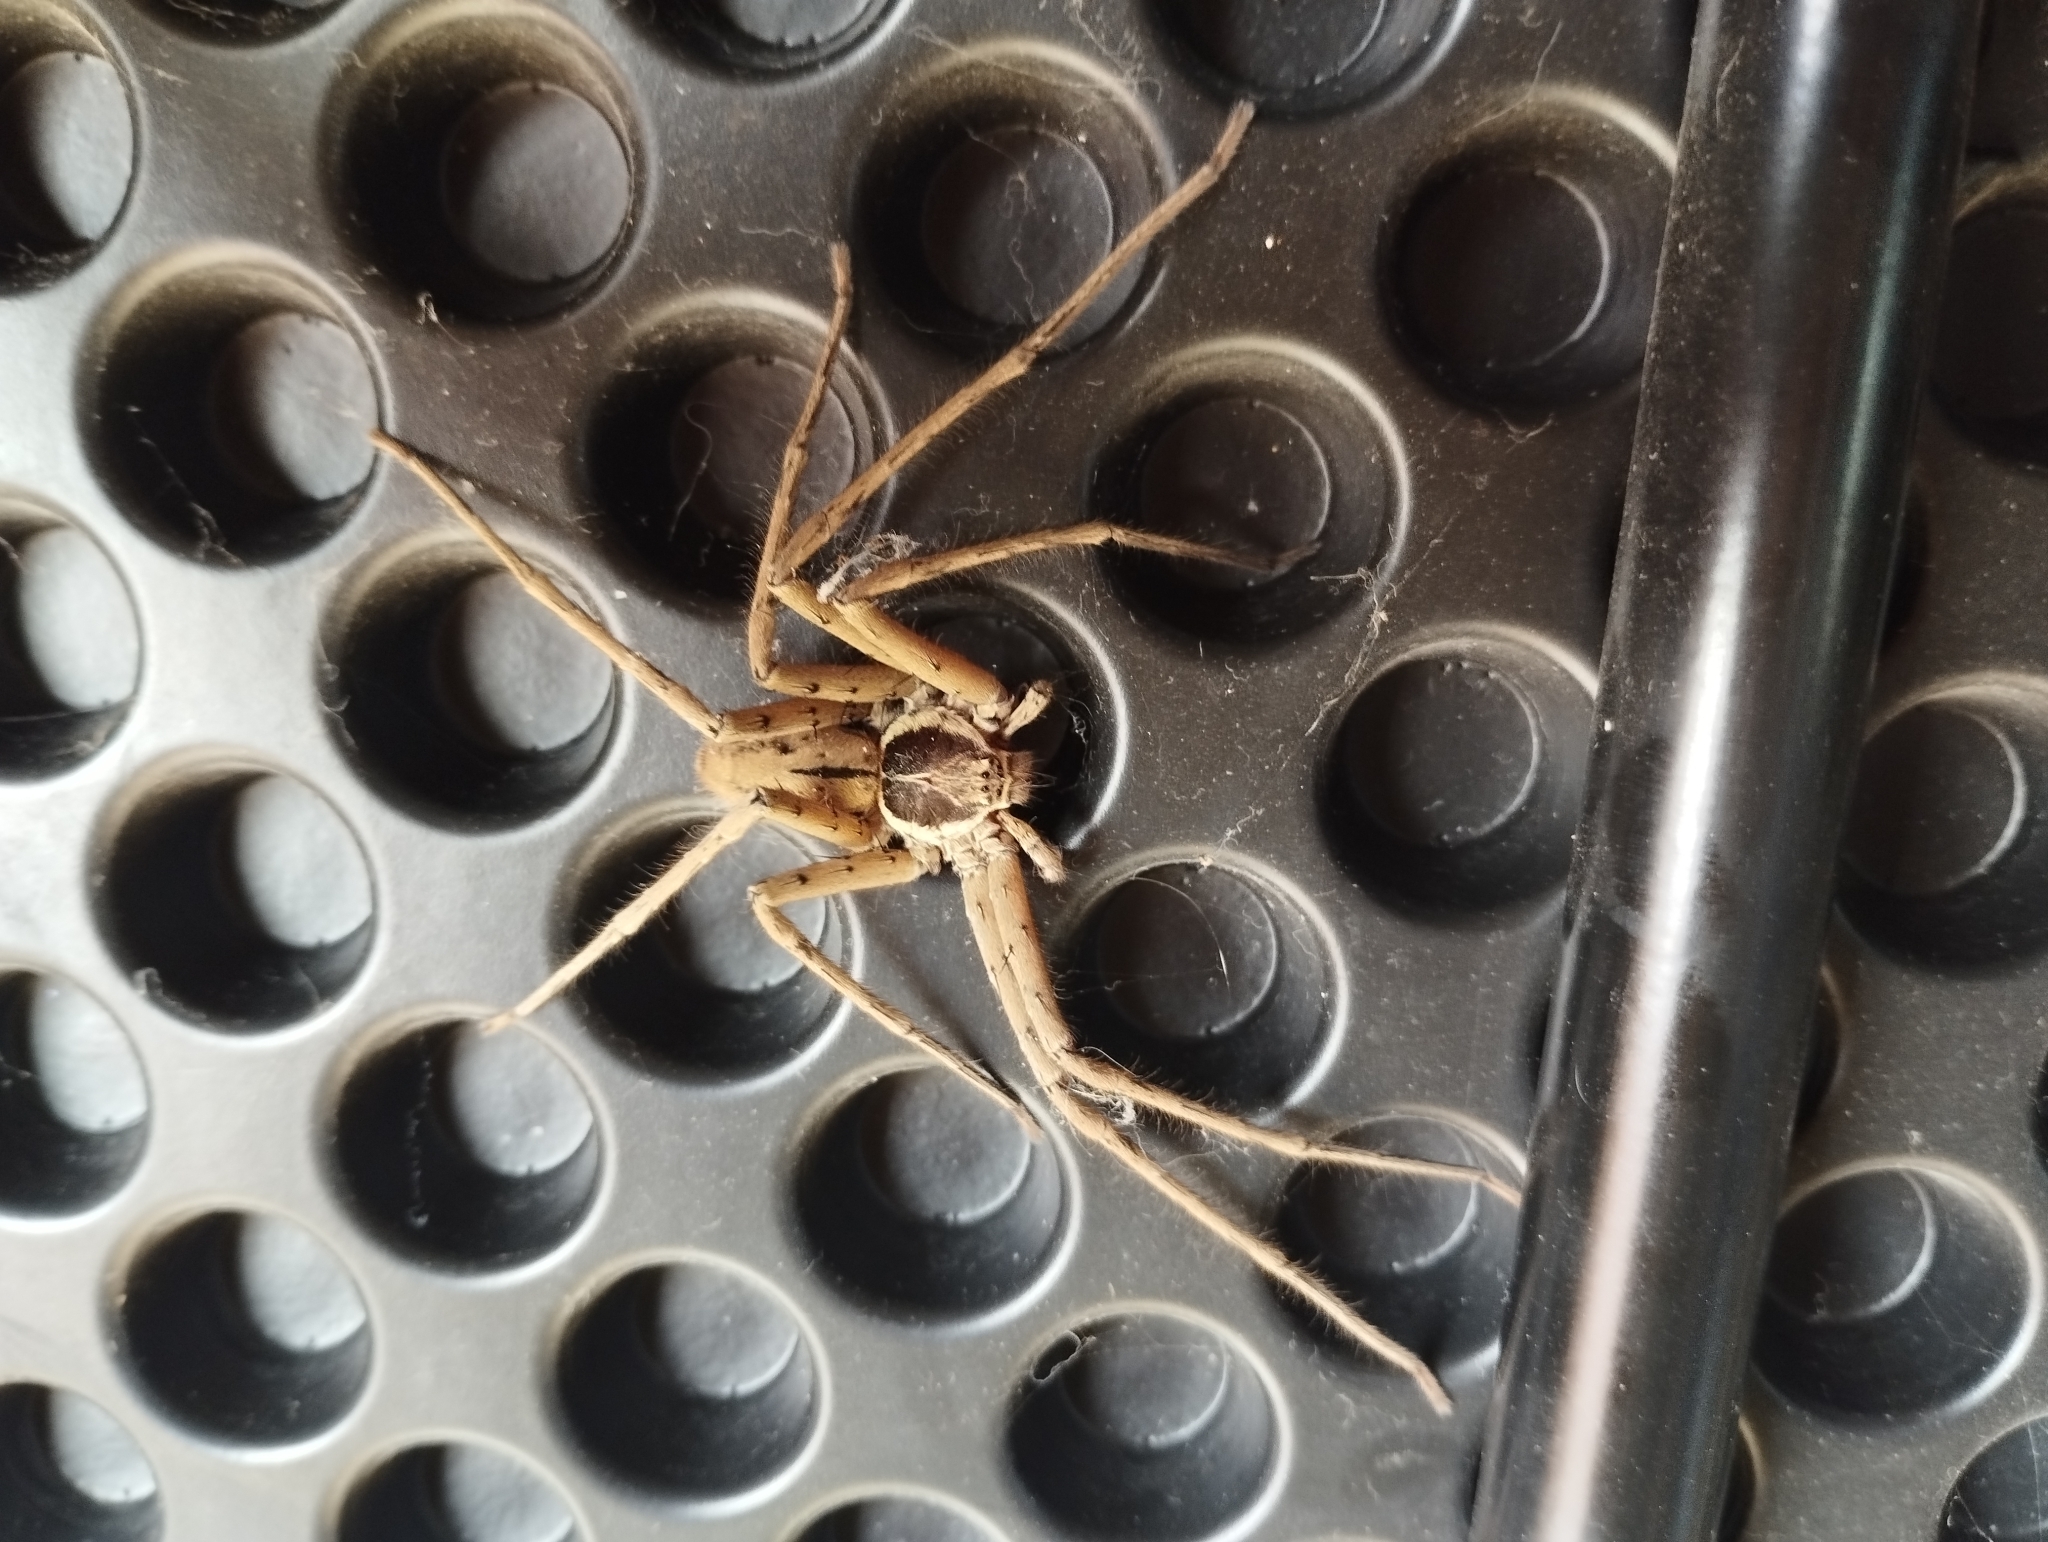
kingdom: Animalia
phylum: Arthropoda
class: Arachnida
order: Araneae
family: Sparassidae
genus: Heteropoda
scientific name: Heteropoda venatoria
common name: Huntsman spider
